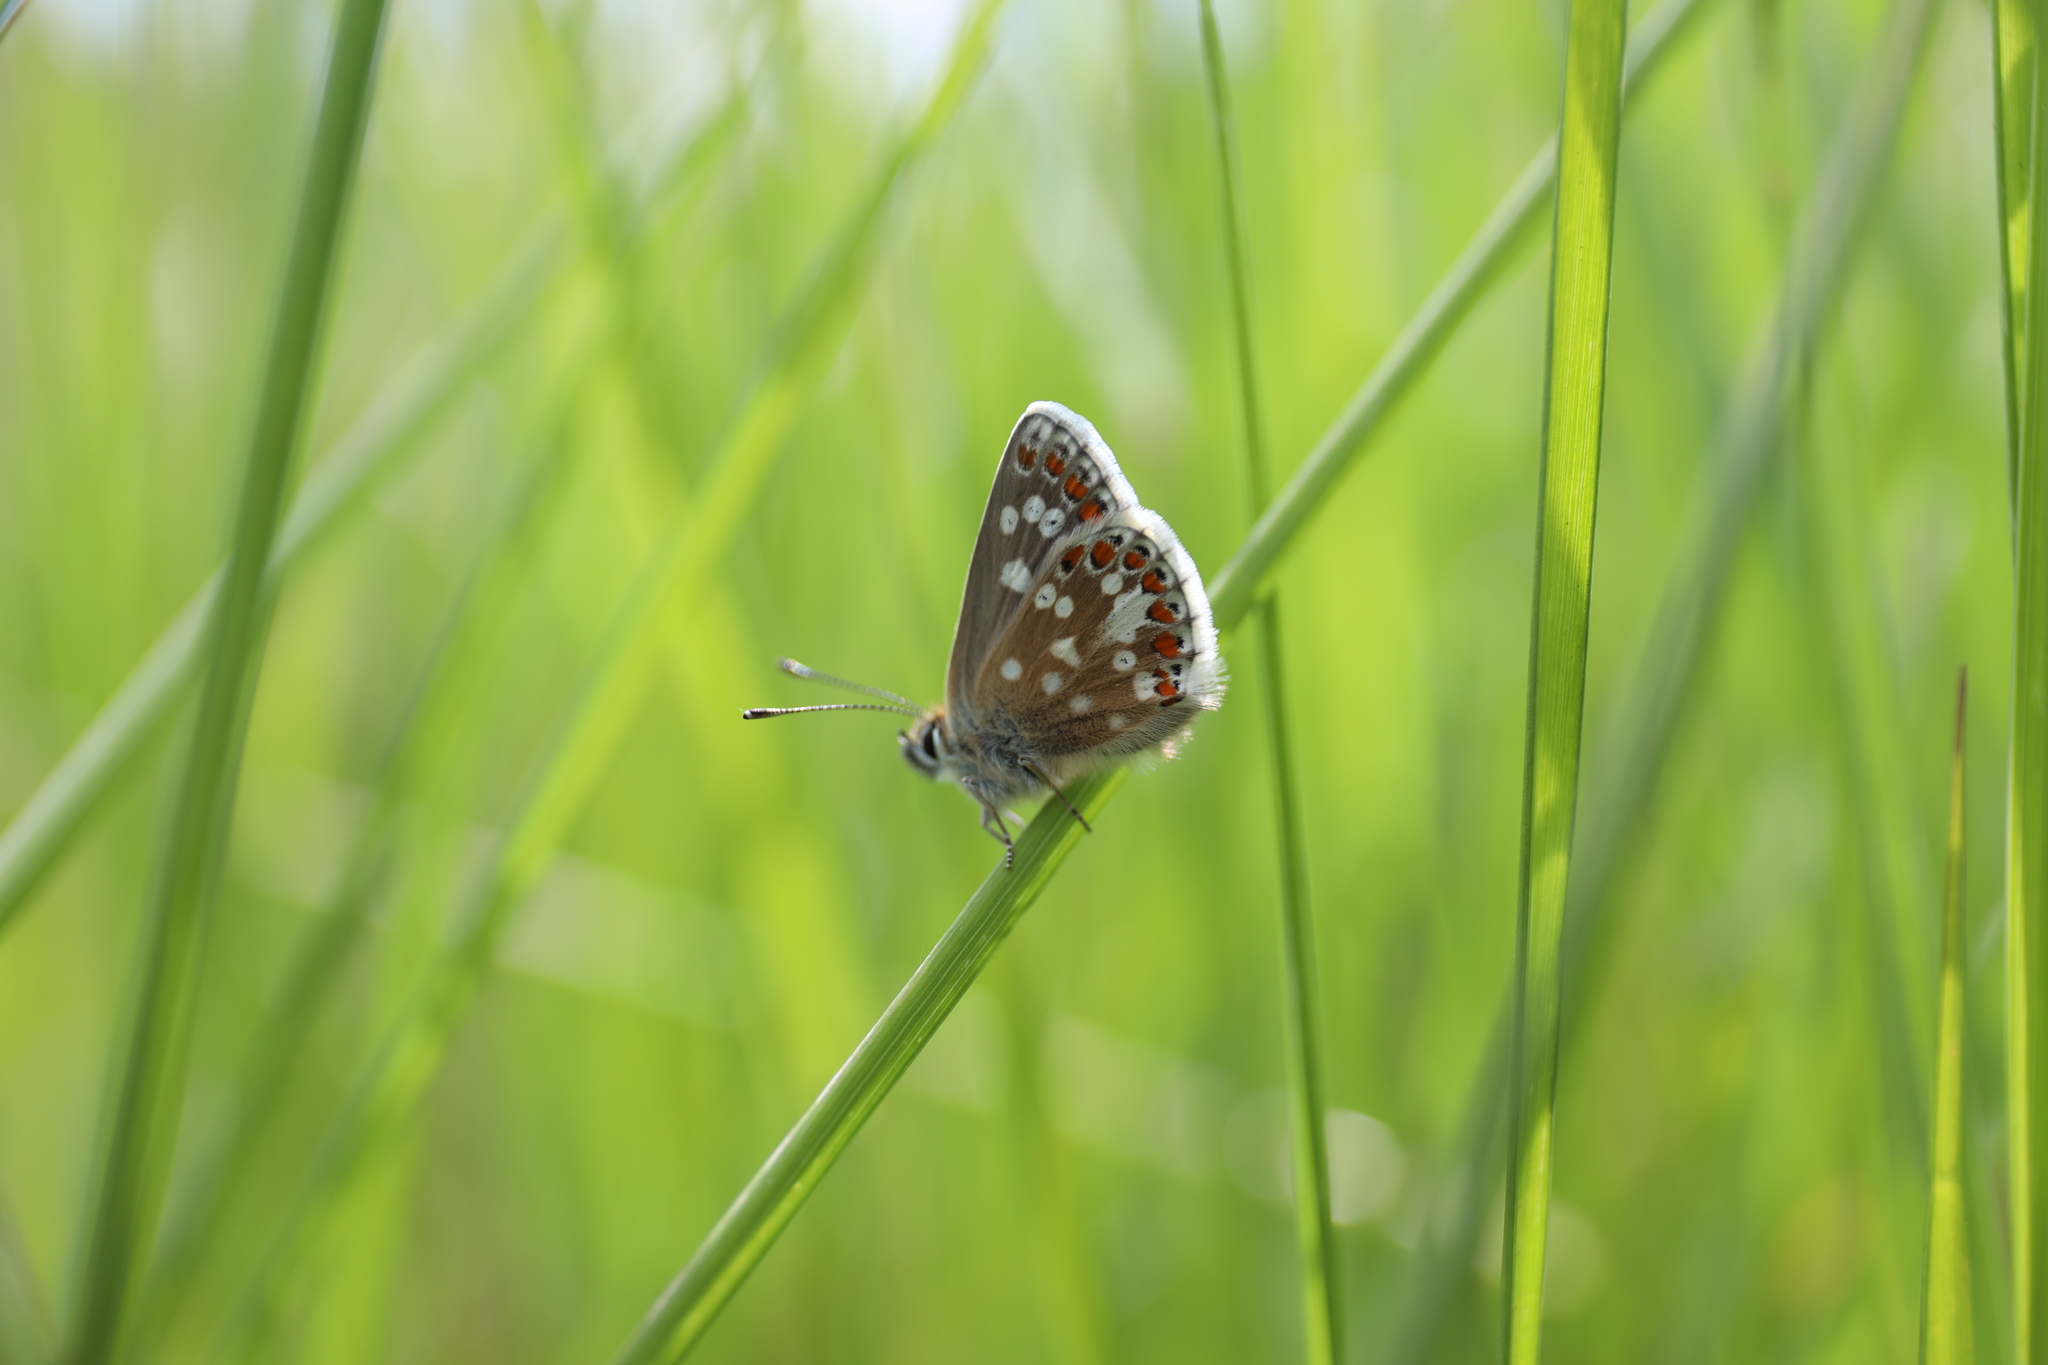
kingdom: Animalia
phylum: Arthropoda
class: Insecta
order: Lepidoptera
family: Lycaenidae
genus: Aricia
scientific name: Aricia artaxerxes
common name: Northern brown argus
